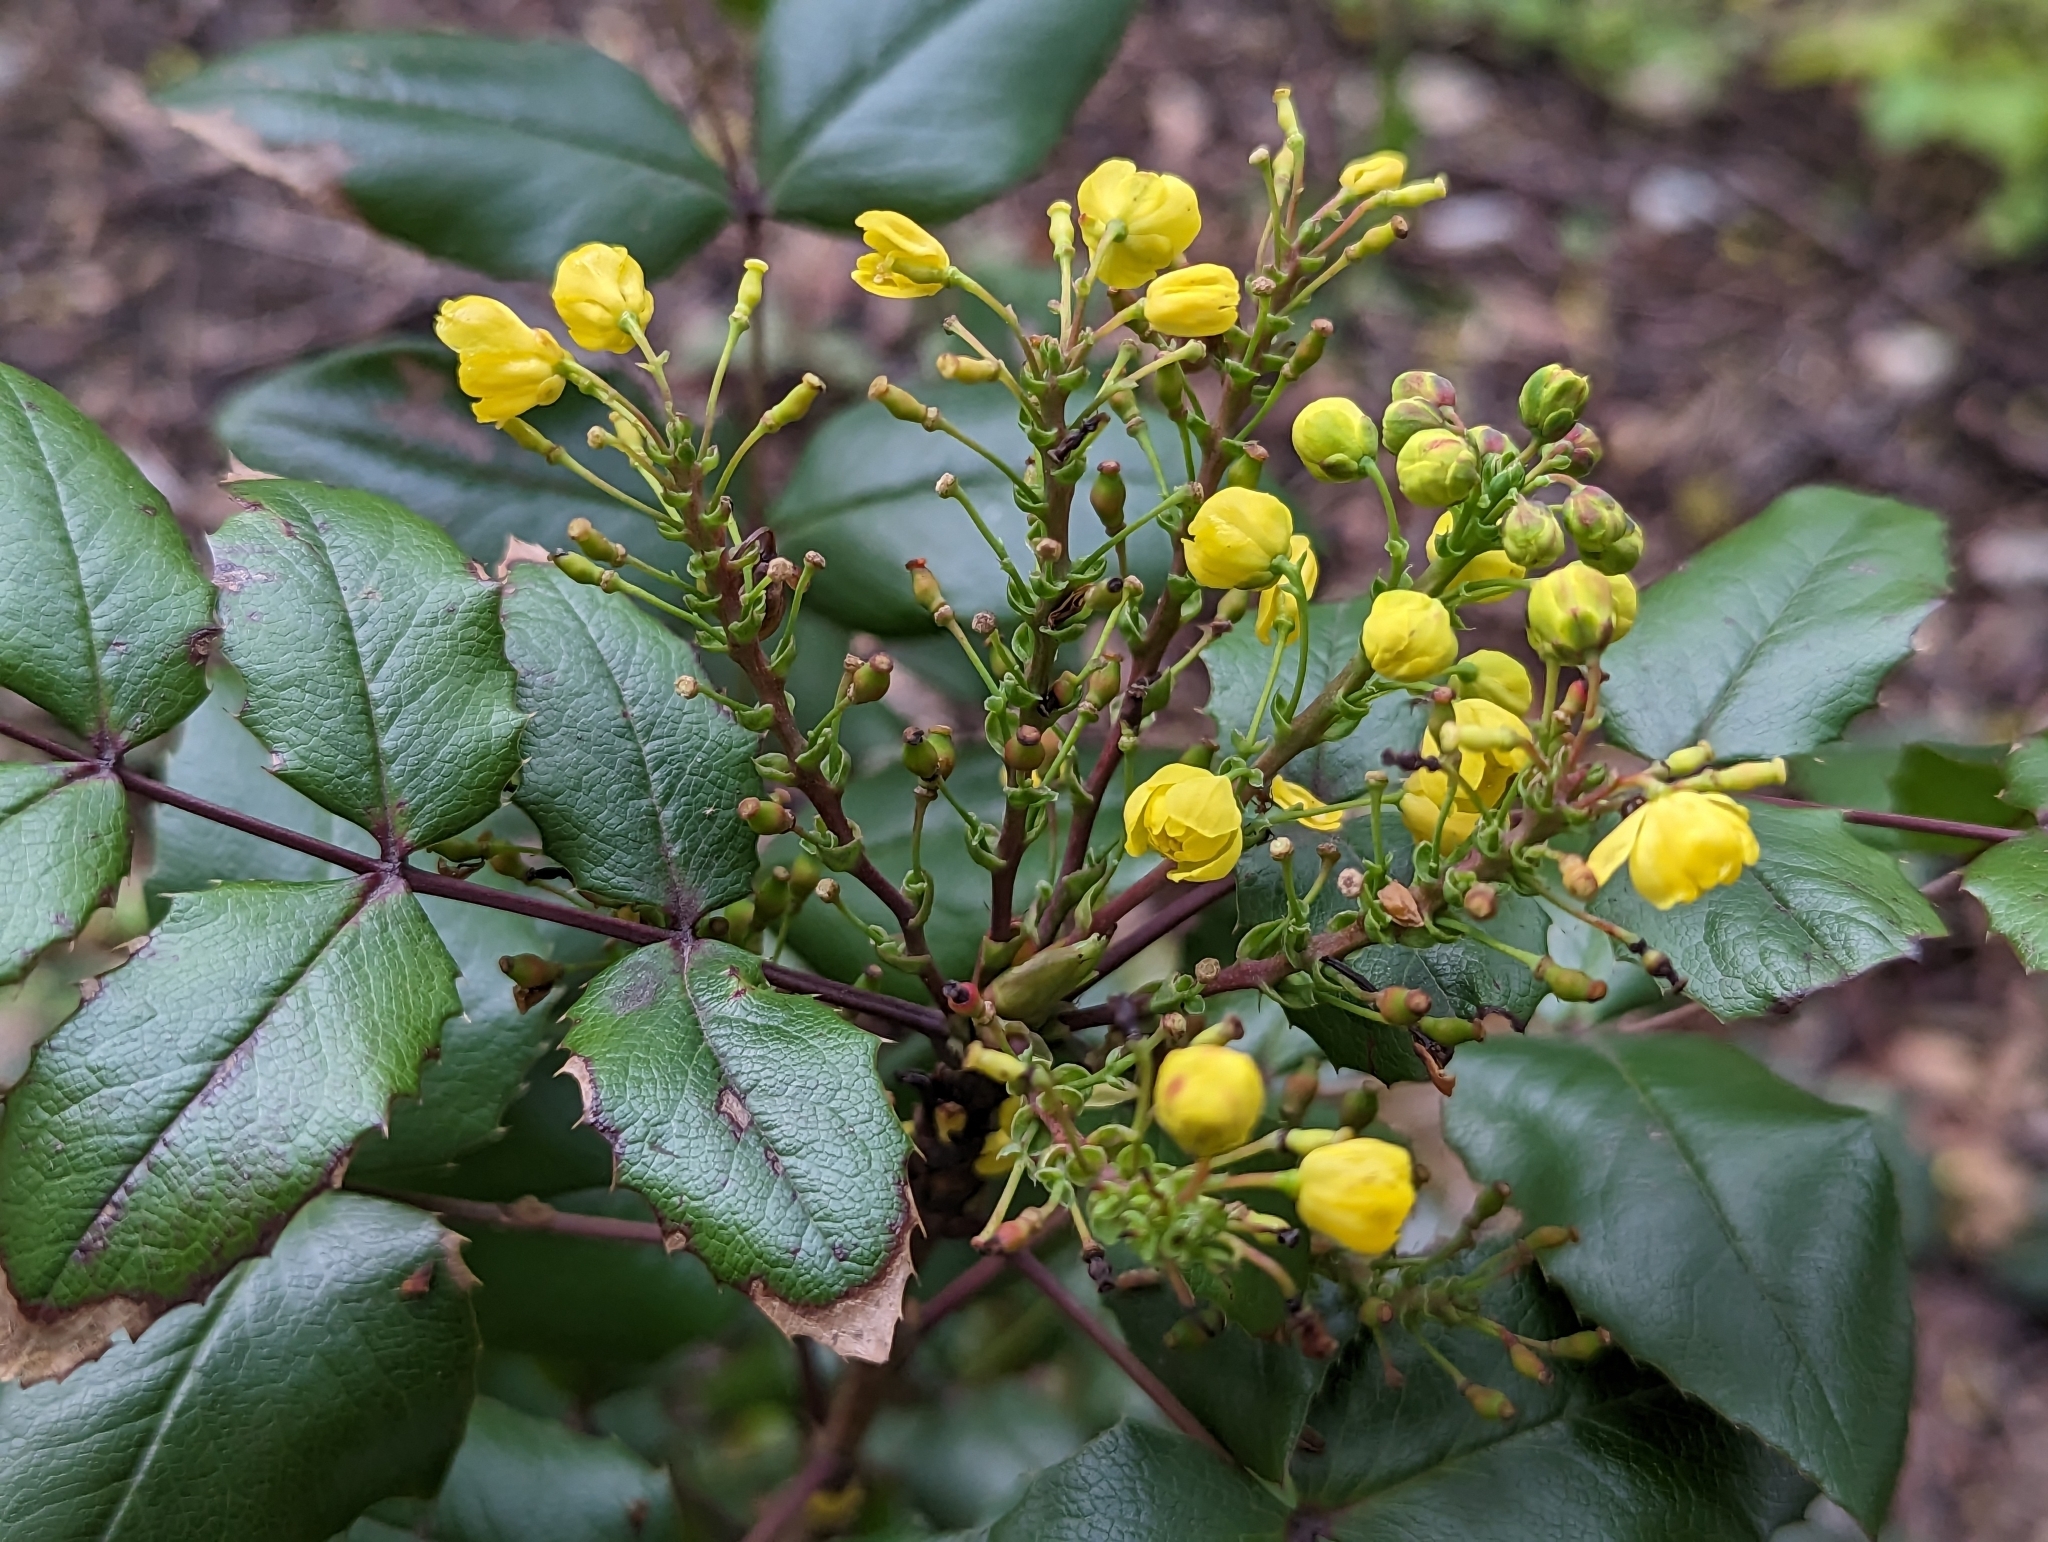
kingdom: Plantae
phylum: Tracheophyta
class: Magnoliopsida
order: Ranunculales
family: Berberidaceae
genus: Mahonia
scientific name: Mahonia aquifolium
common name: Oregon-grape
